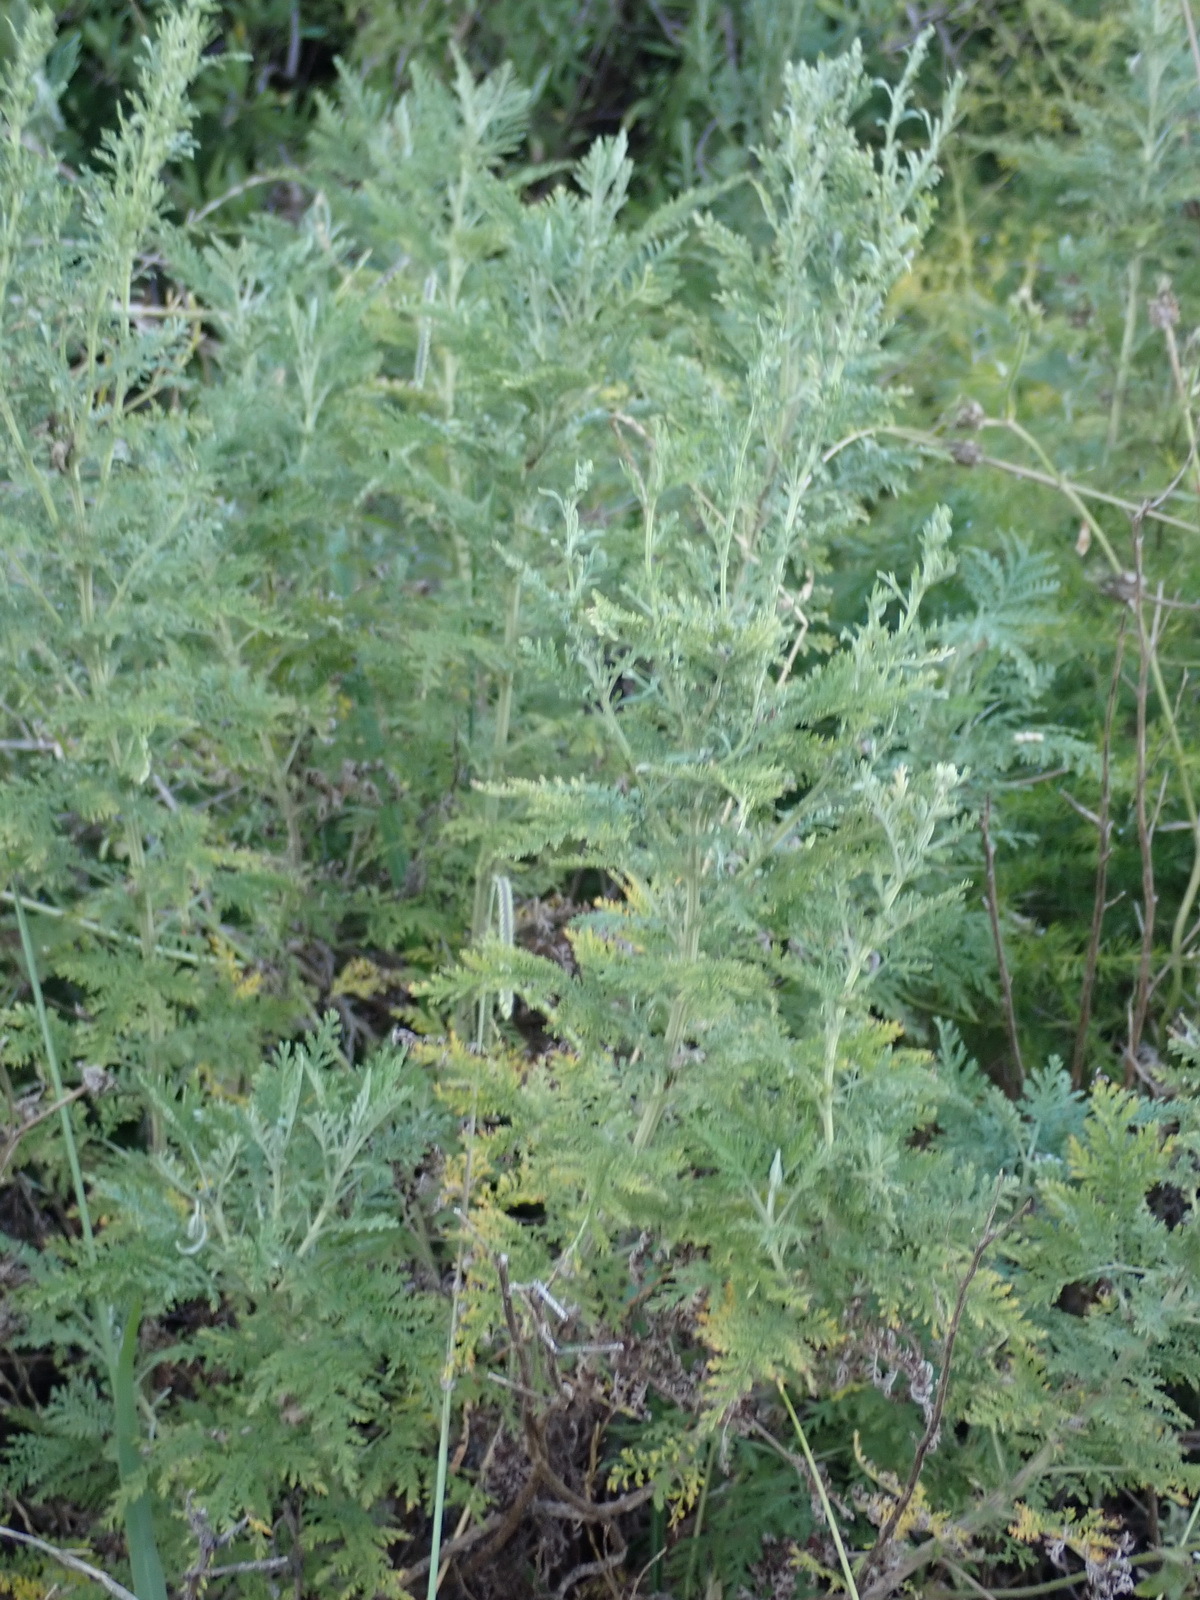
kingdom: Plantae
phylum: Tracheophyta
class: Magnoliopsida
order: Asterales
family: Asteraceae
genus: Artemisia
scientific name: Artemisia afra
